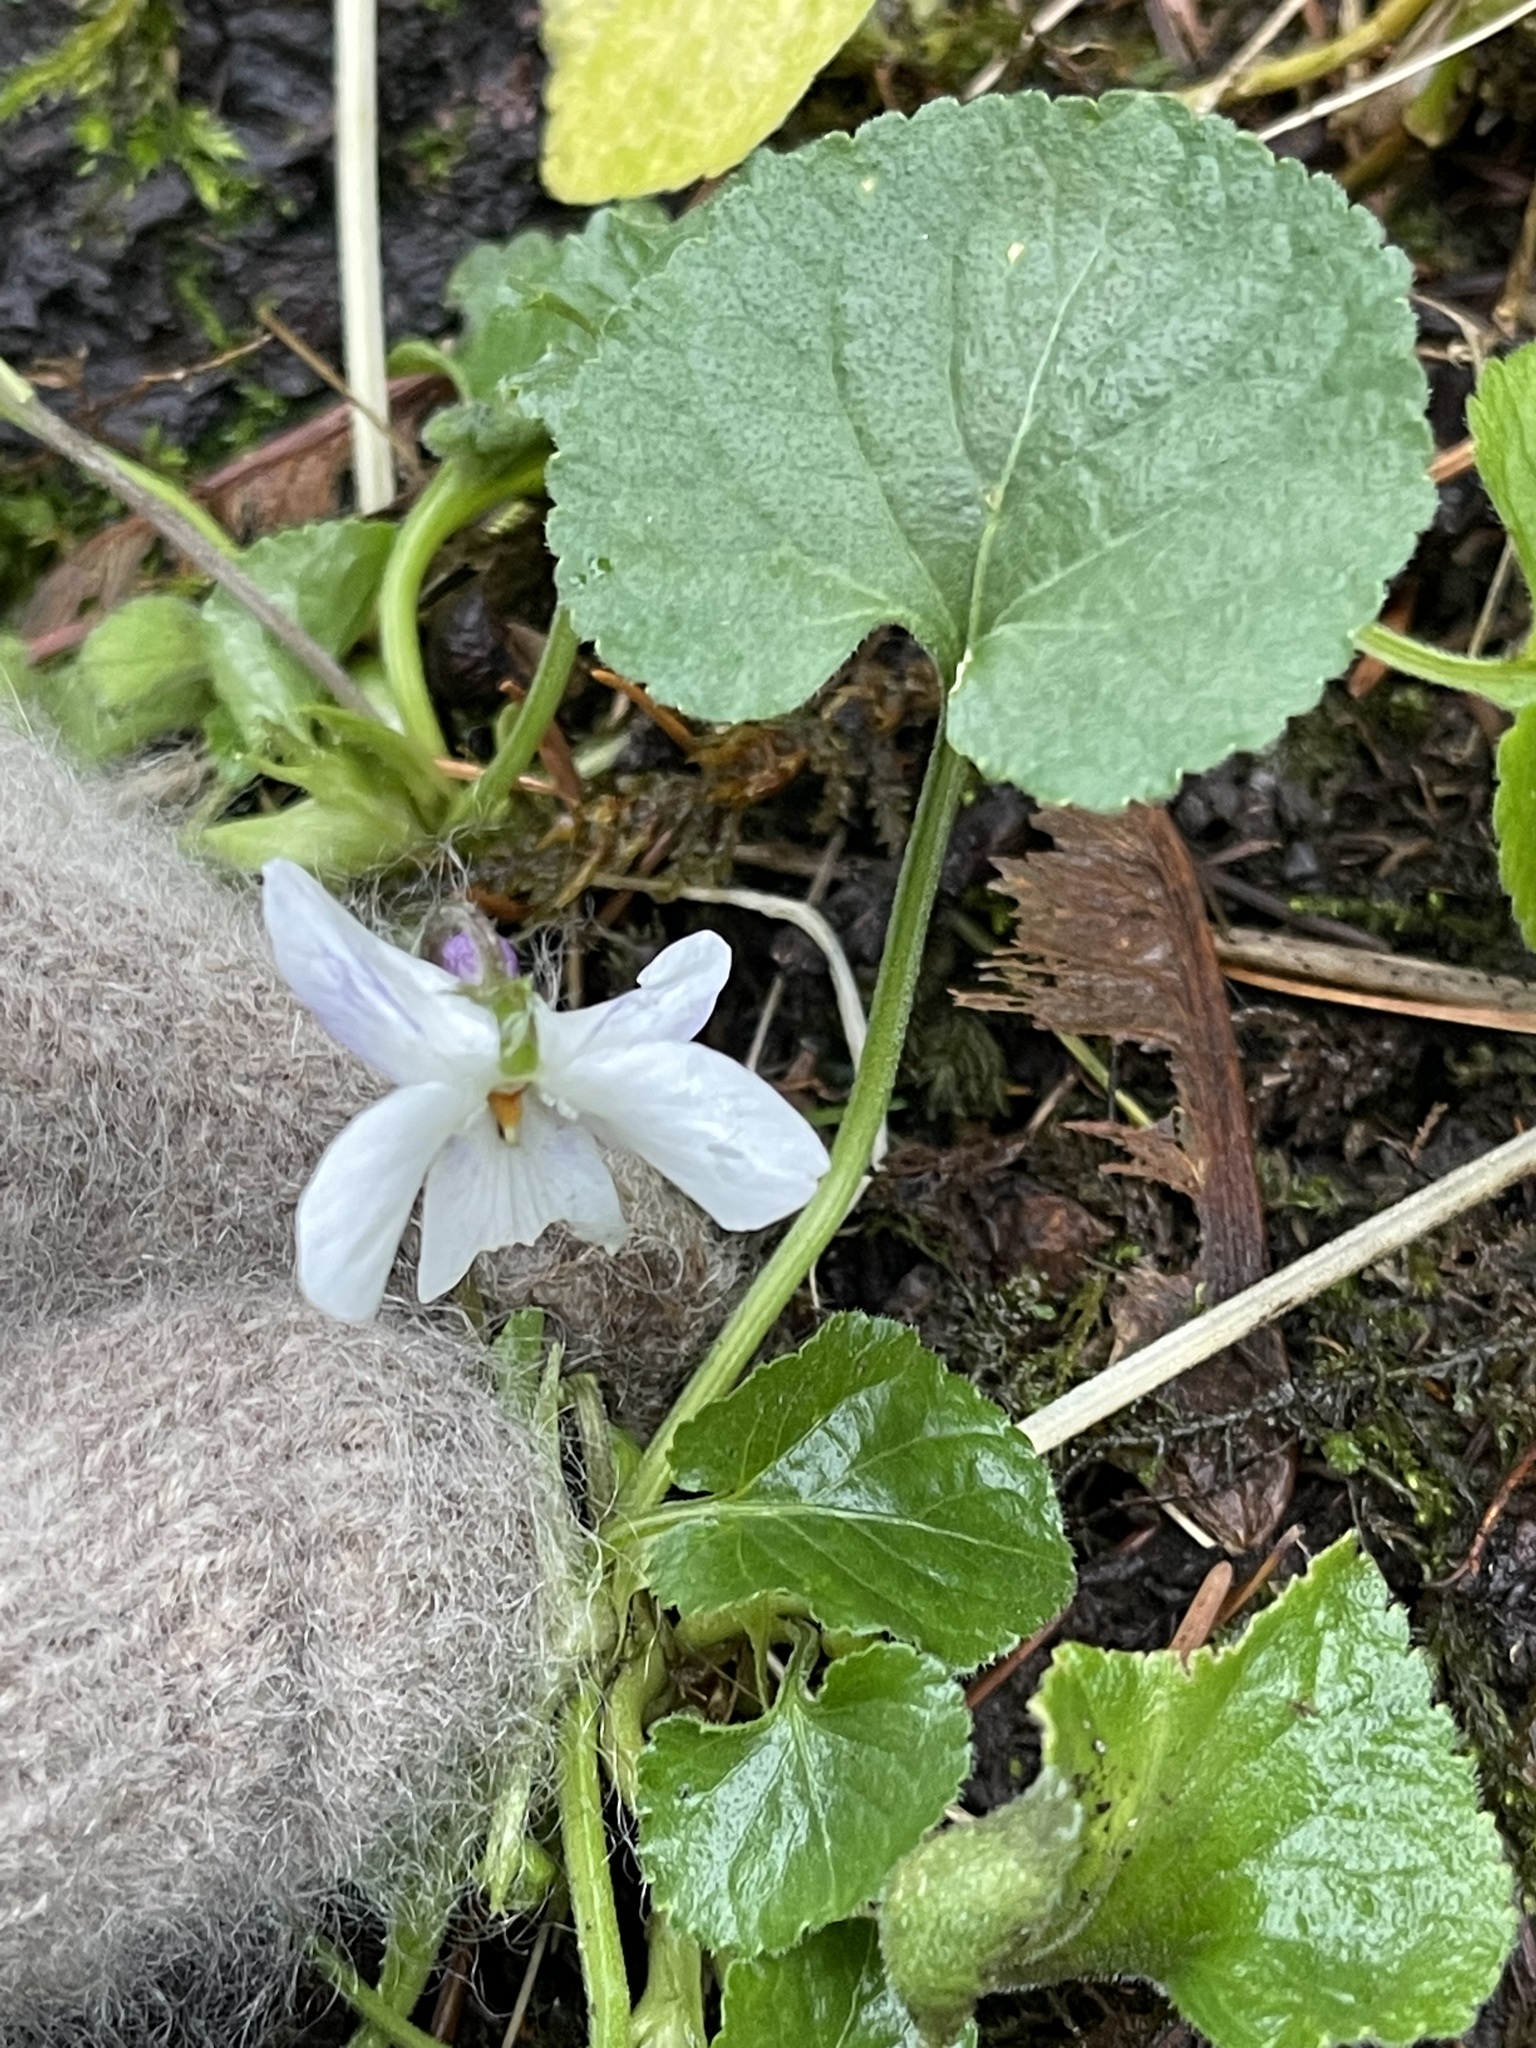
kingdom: Plantae
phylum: Tracheophyta
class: Magnoliopsida
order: Malpighiales
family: Violaceae
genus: Viola
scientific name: Viola odorata
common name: Sweet violet
